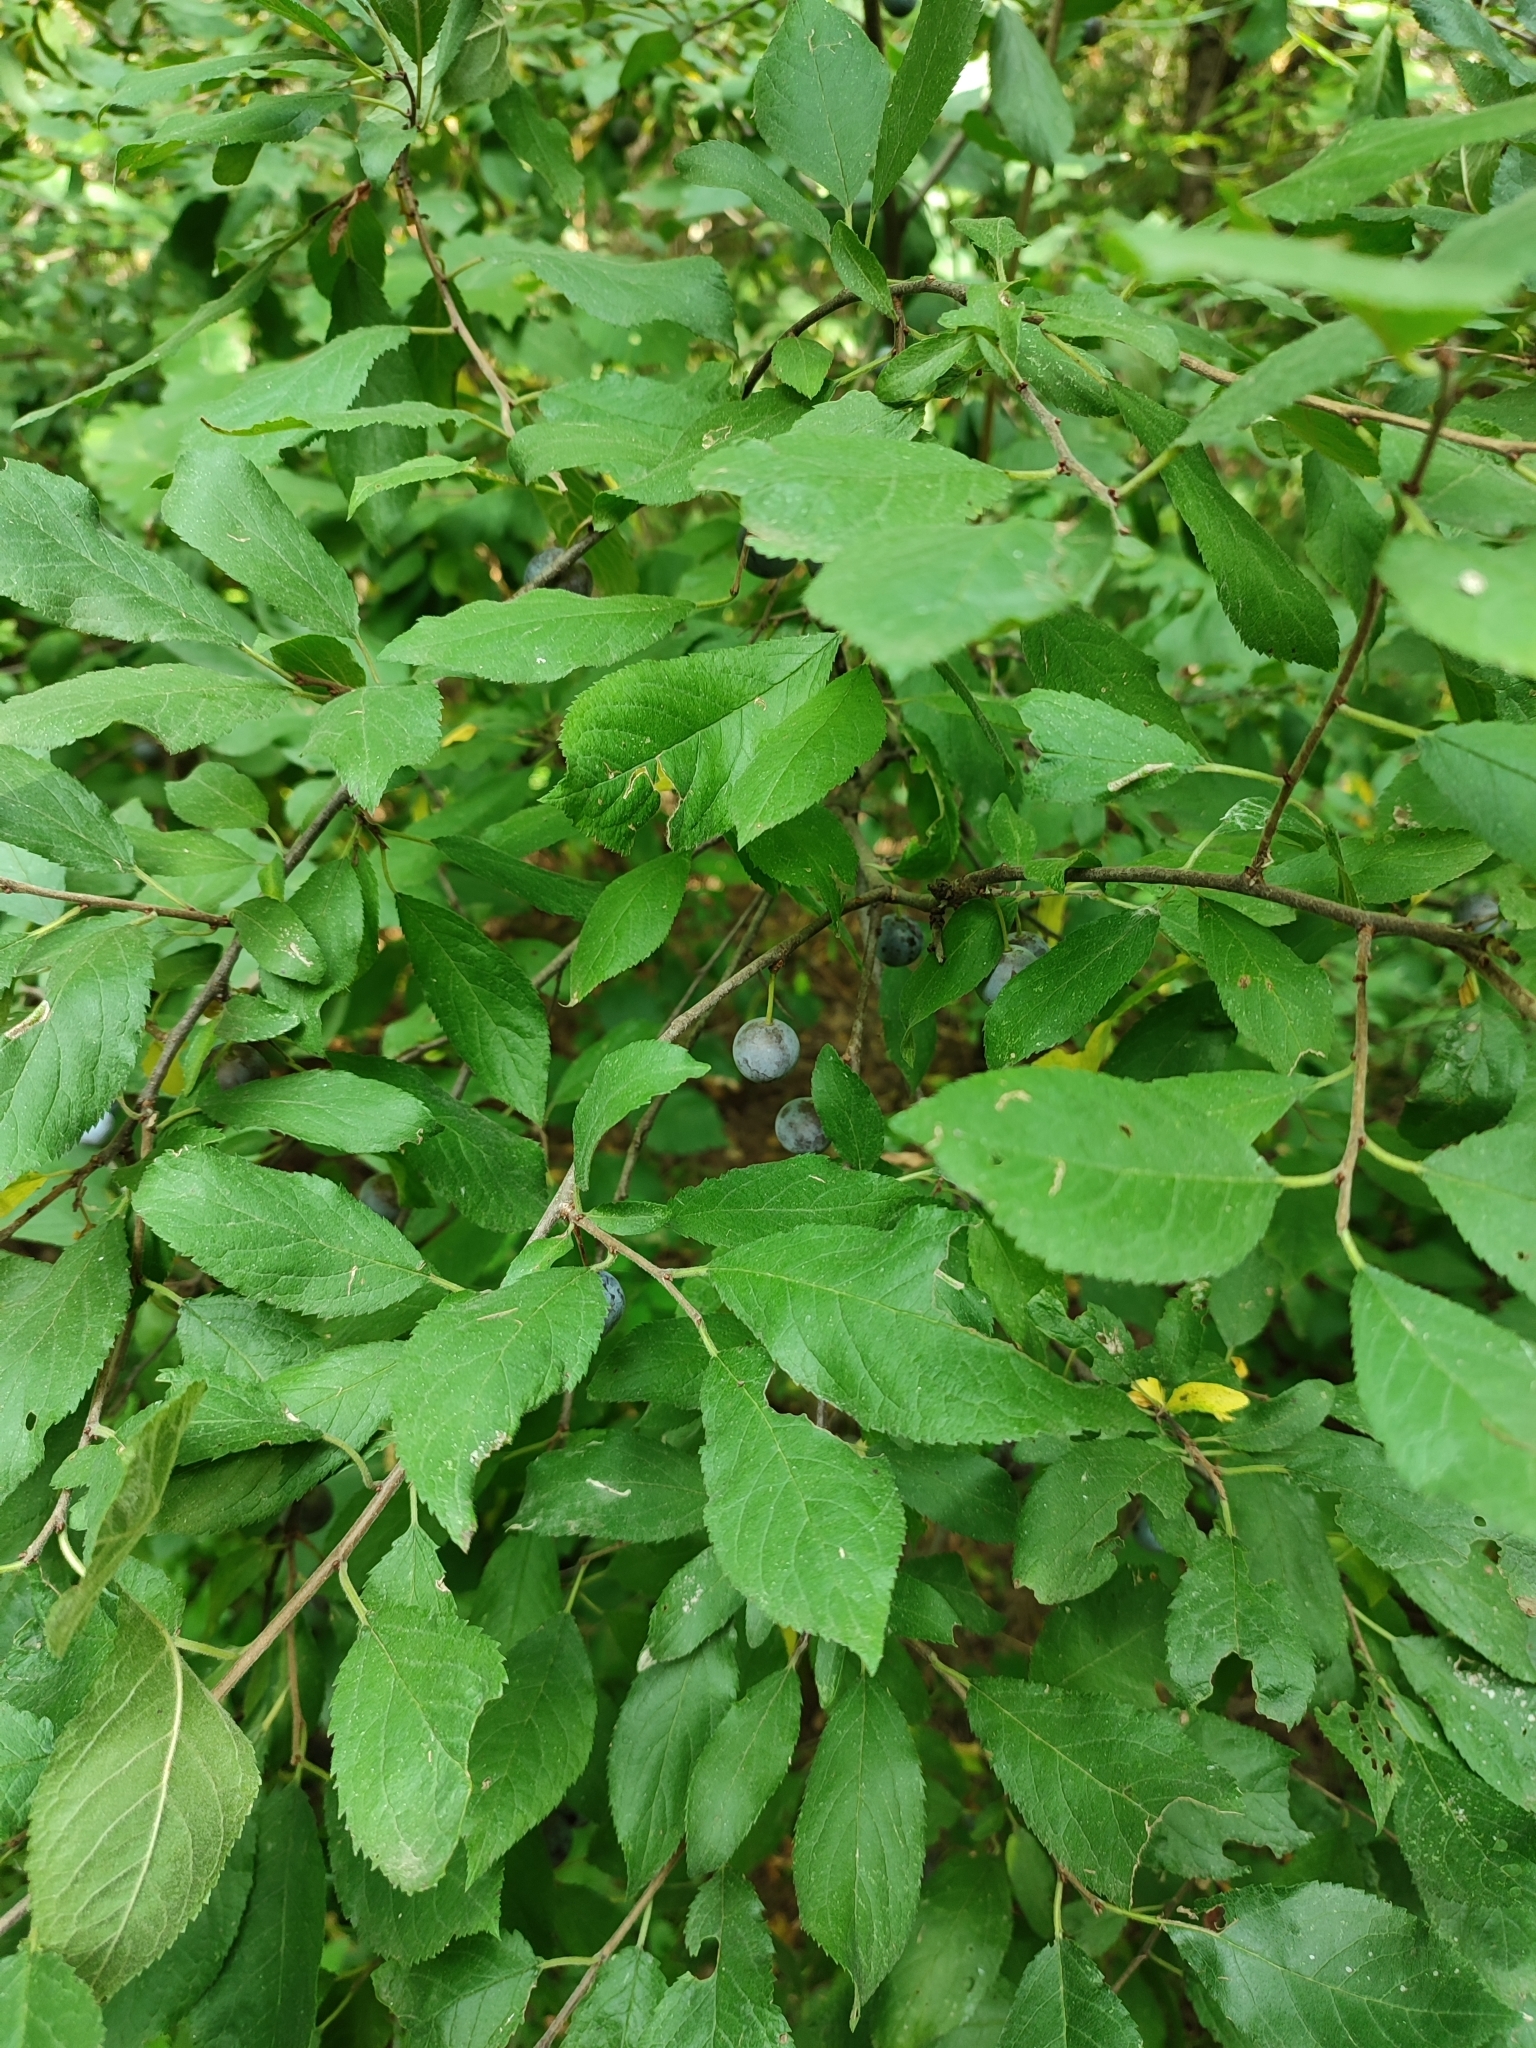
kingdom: Plantae
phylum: Tracheophyta
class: Magnoliopsida
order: Rosales
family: Rosaceae
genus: Prunus
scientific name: Prunus spinosa
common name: Blackthorn
